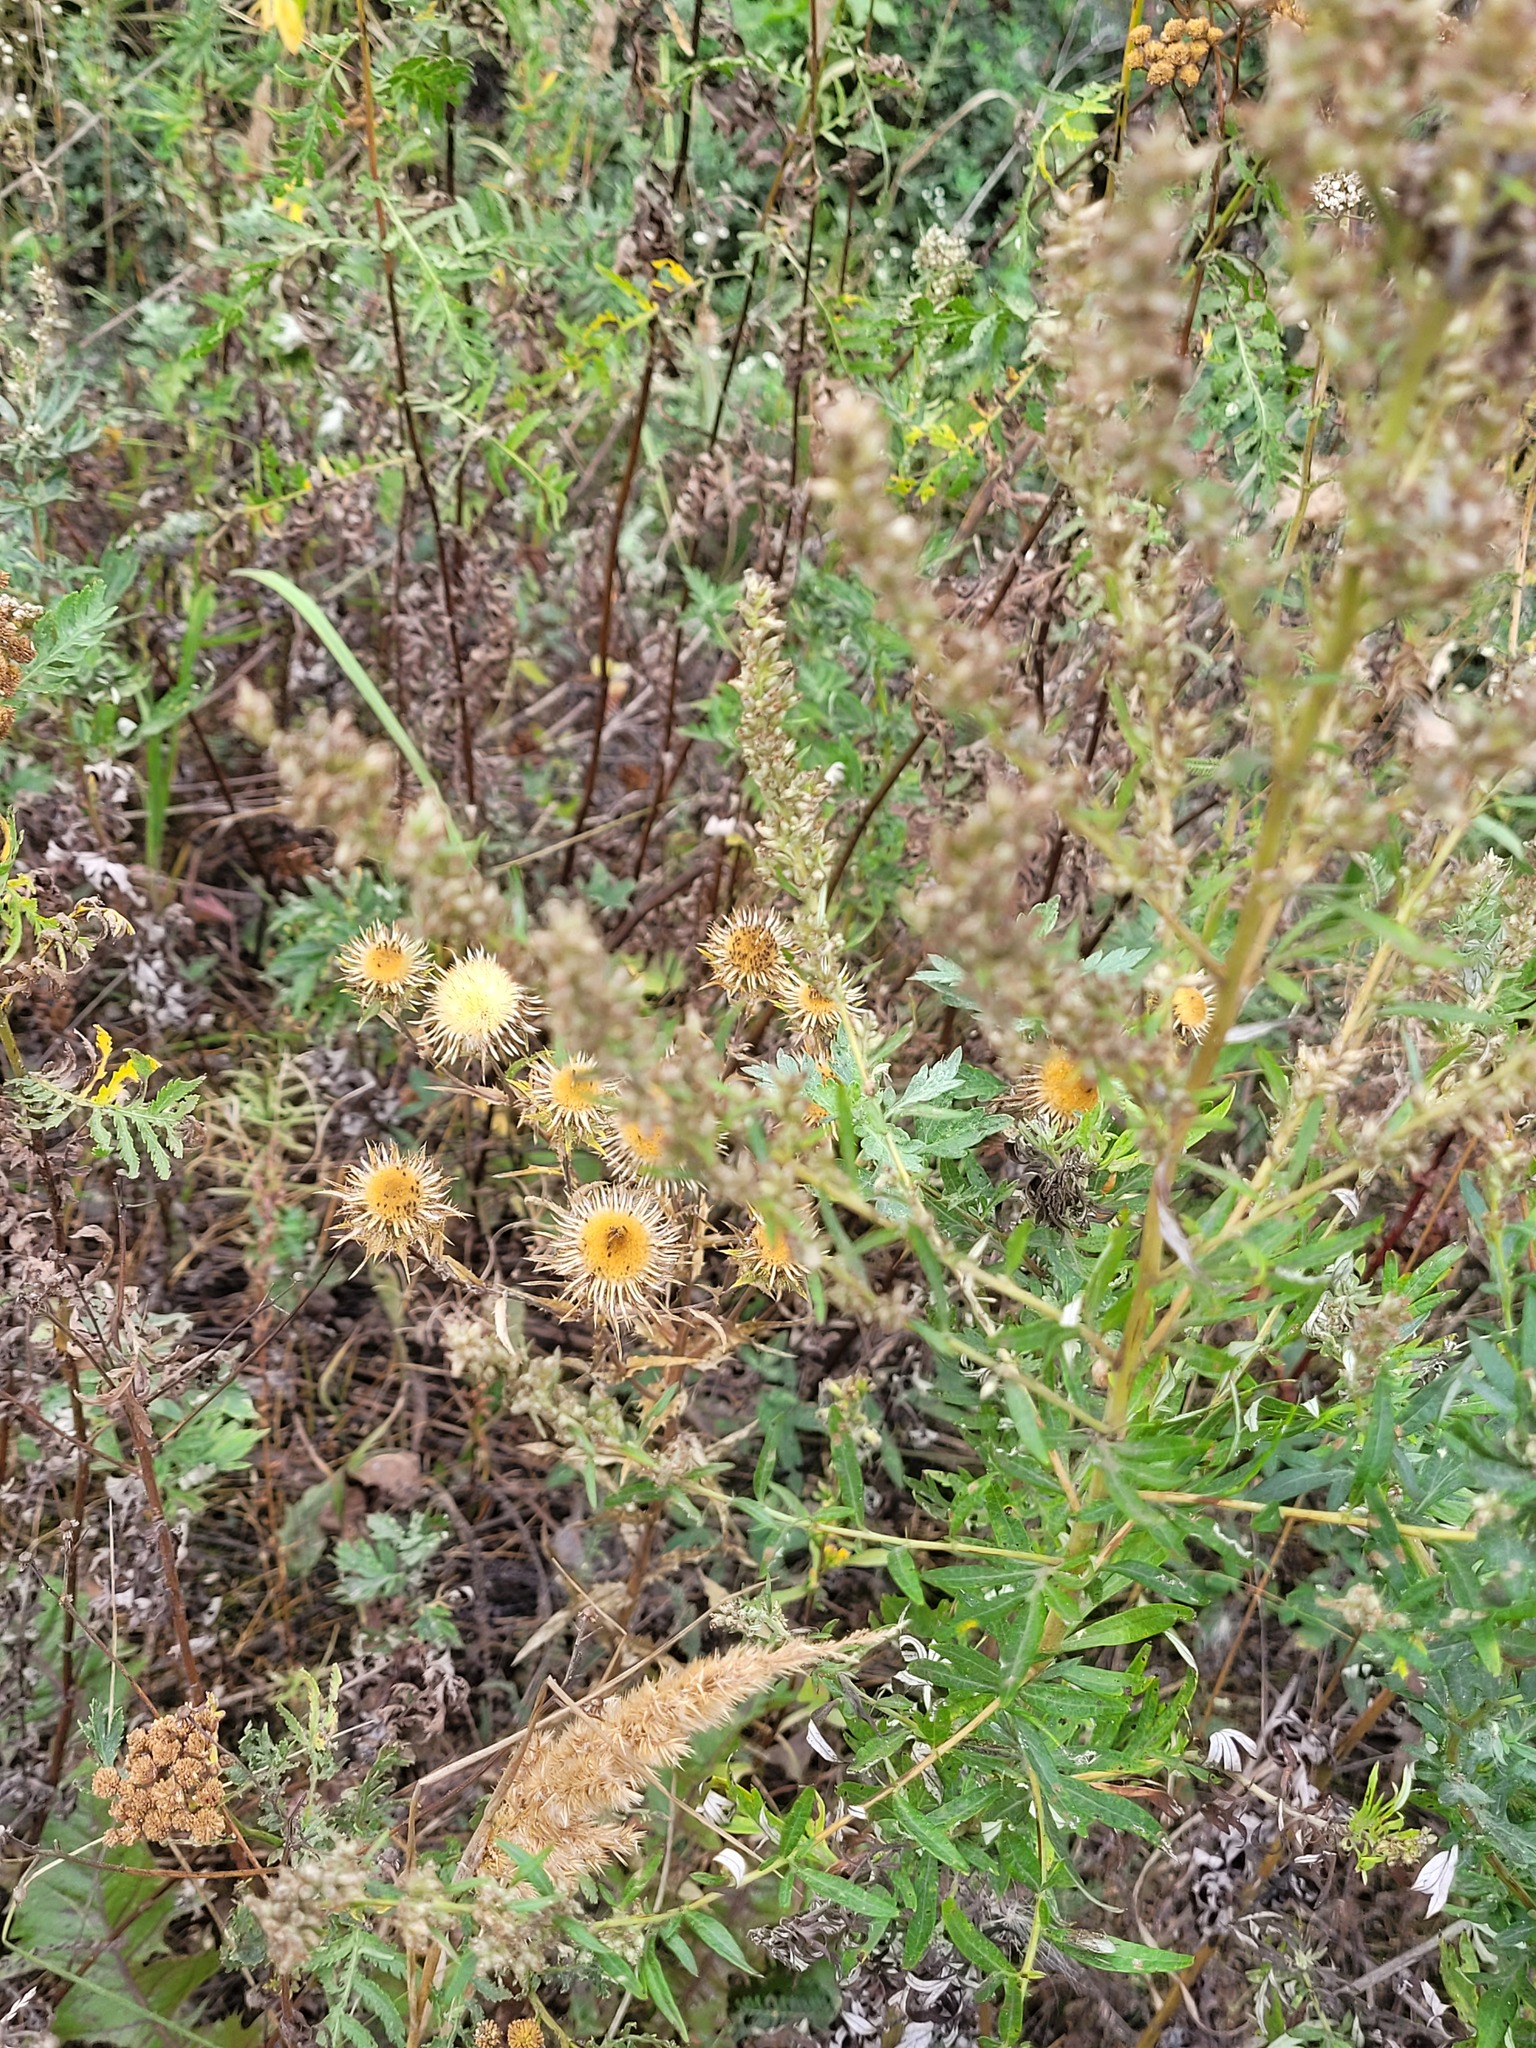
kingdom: Plantae
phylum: Tracheophyta
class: Magnoliopsida
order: Asterales
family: Asteraceae
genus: Carlina
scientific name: Carlina biebersteinii
